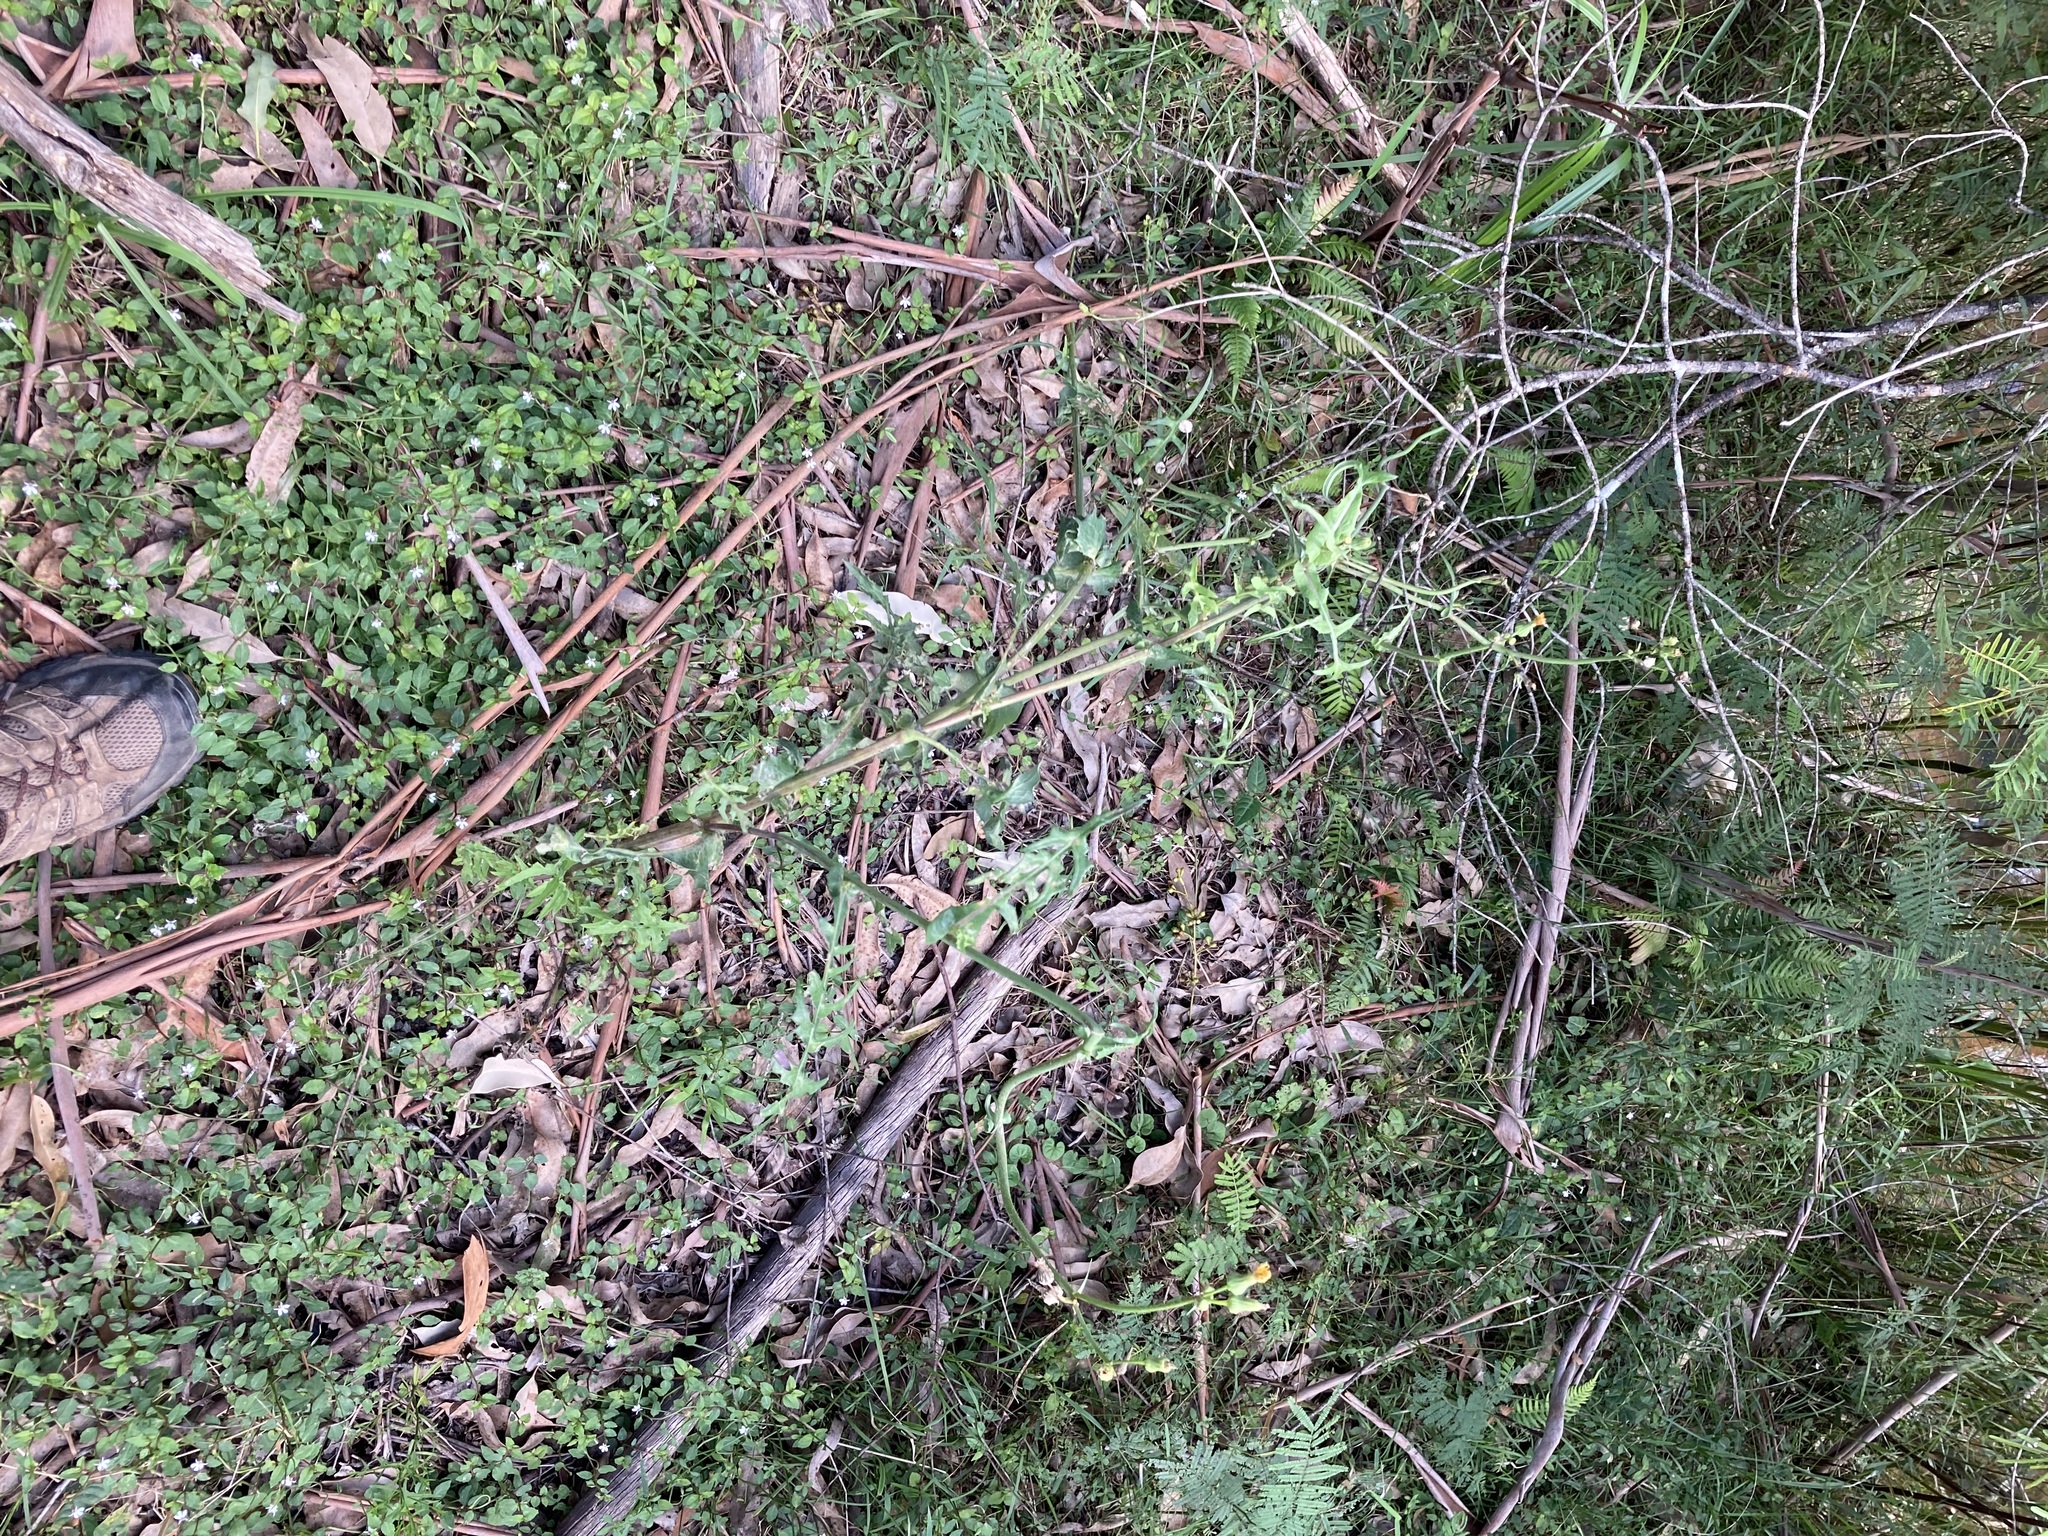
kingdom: Plantae
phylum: Tracheophyta
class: Magnoliopsida
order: Asterales
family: Asteraceae
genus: Sonchus
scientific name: Sonchus oleraceus
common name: Common sowthistle
